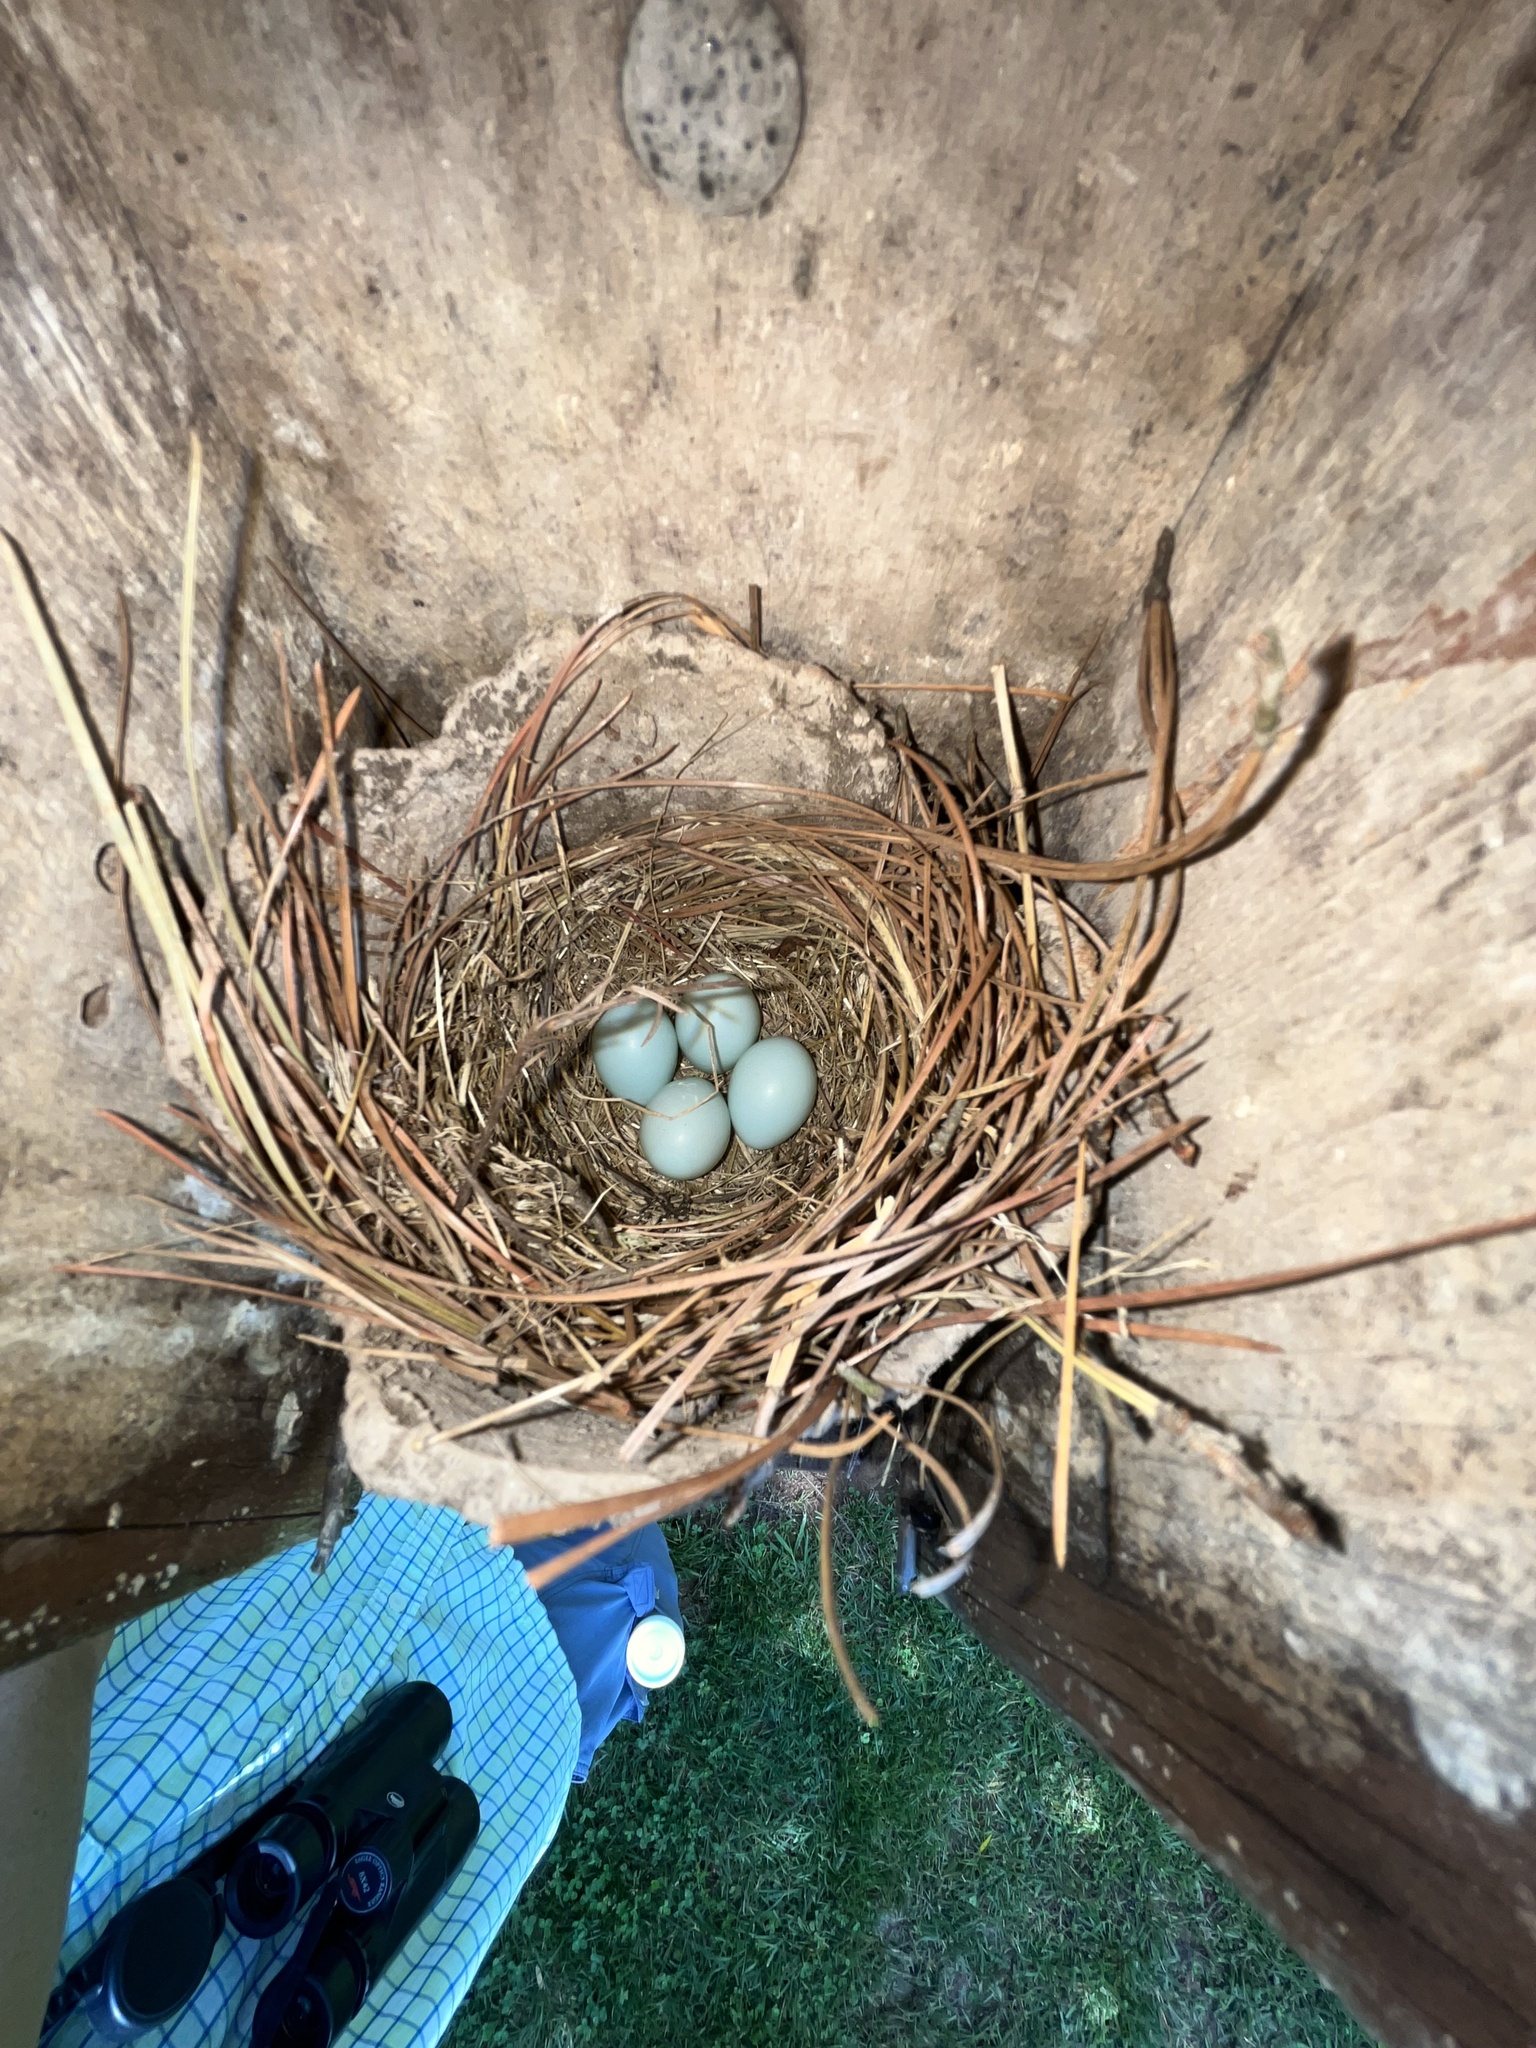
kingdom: Animalia
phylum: Chordata
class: Aves
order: Passeriformes
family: Turdidae
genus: Sialia
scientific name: Sialia sialis
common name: Eastern bluebird
